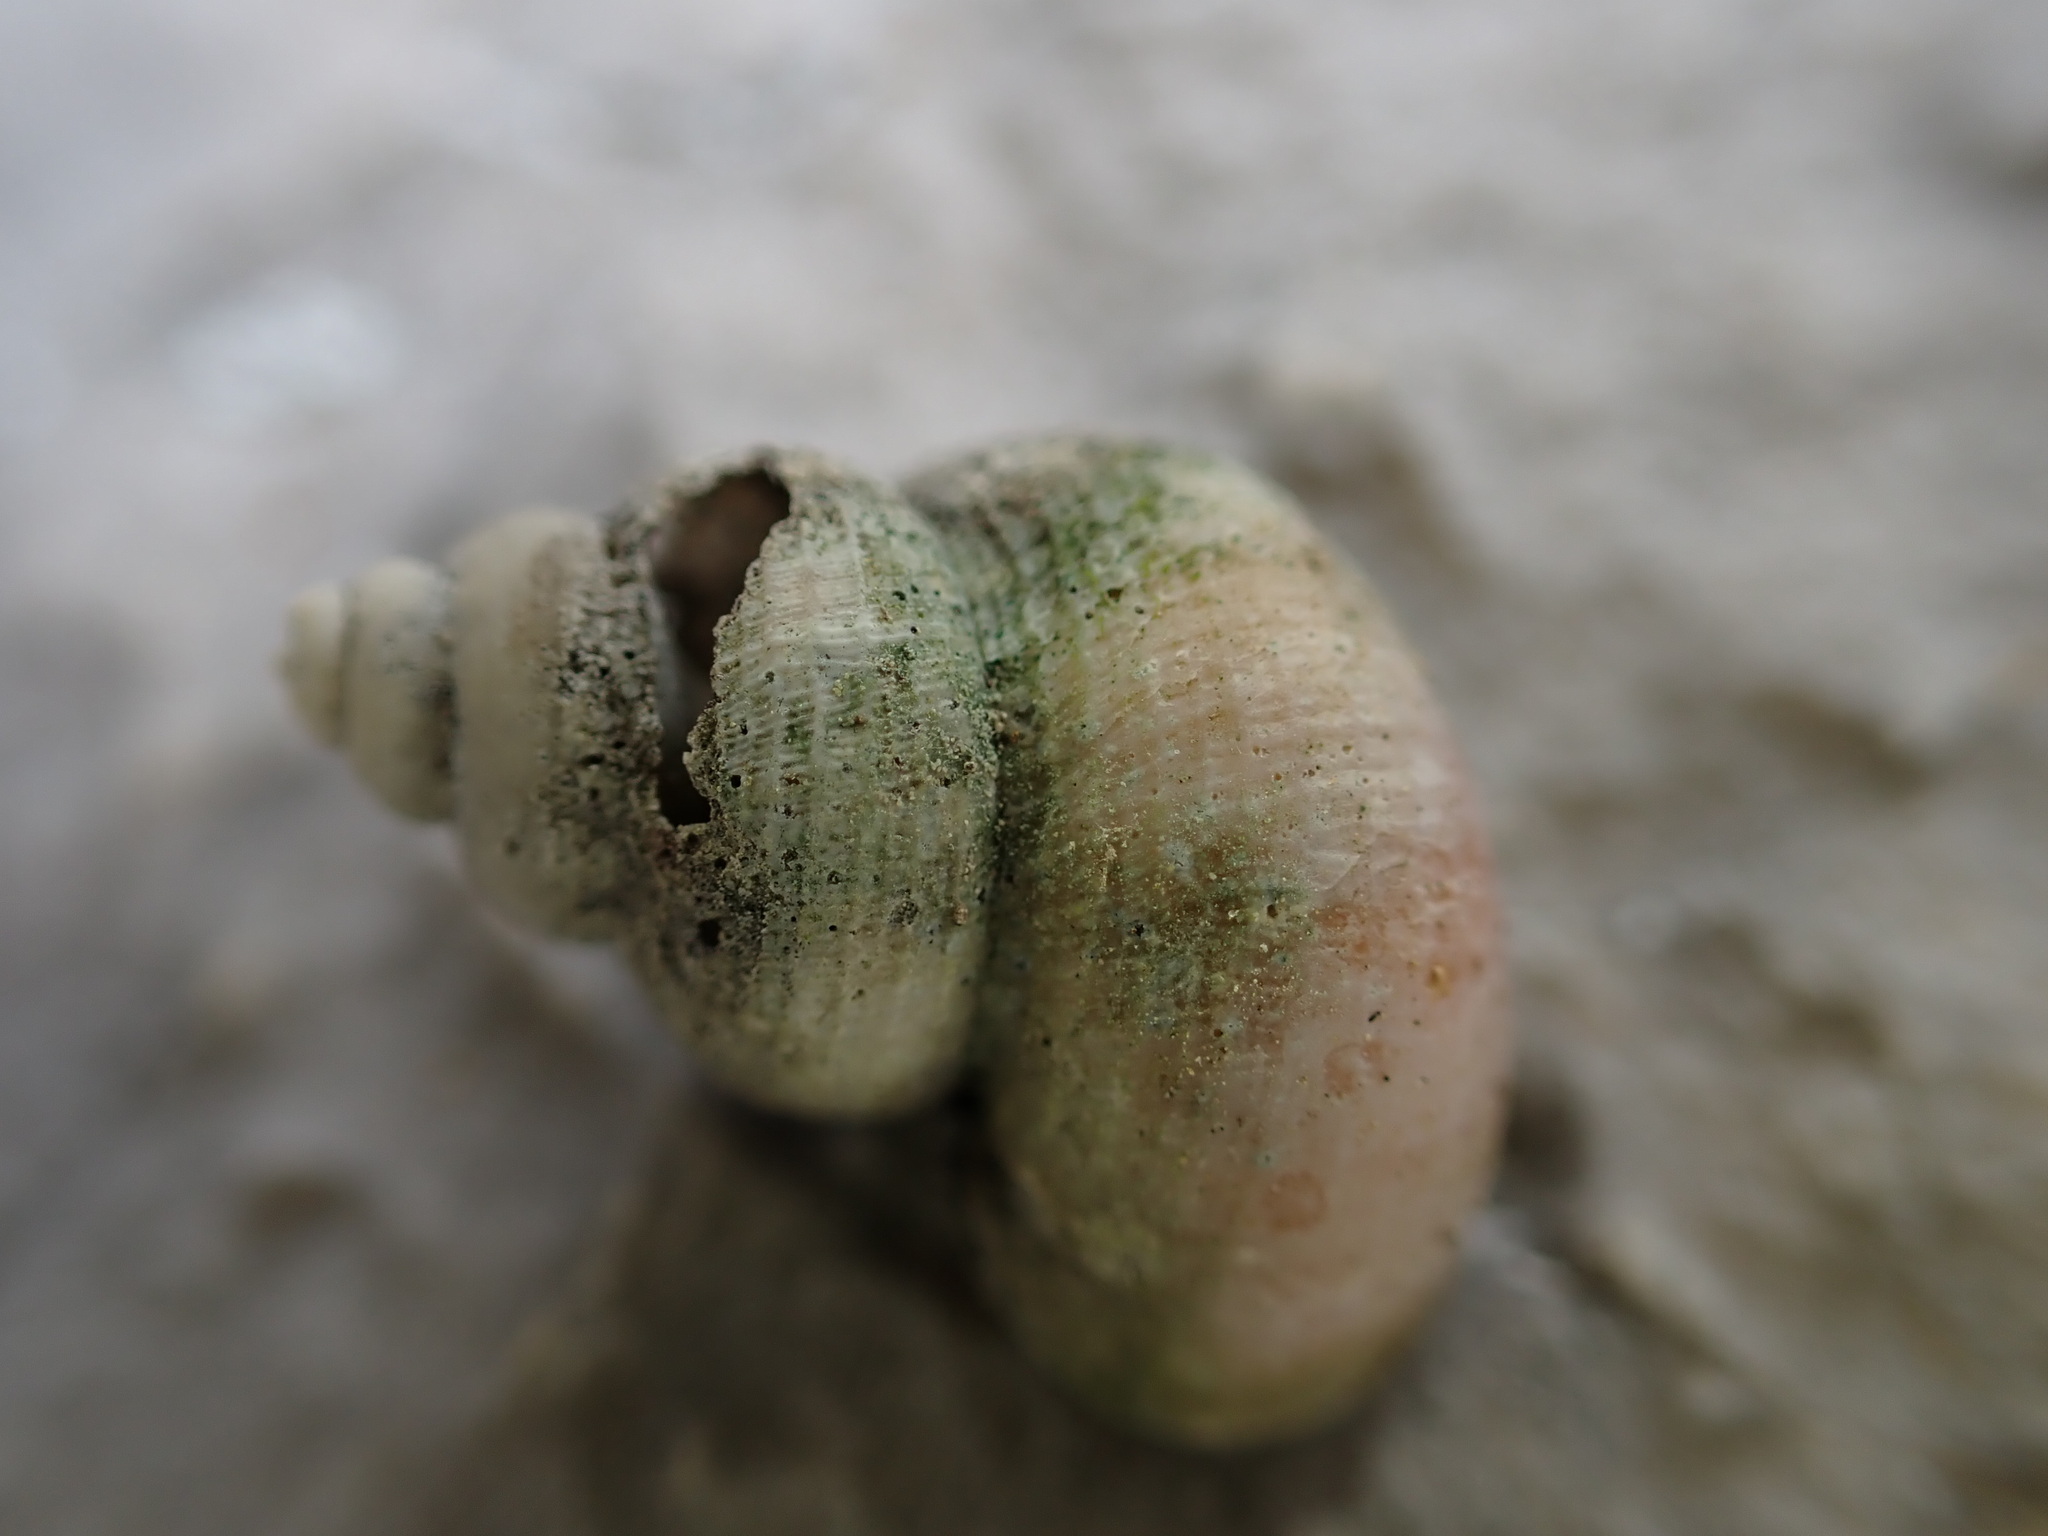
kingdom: Animalia
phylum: Mollusca
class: Gastropoda
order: Littorinimorpha
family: Pomatiidae
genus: Tudorella
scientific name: Tudorella sulcata
